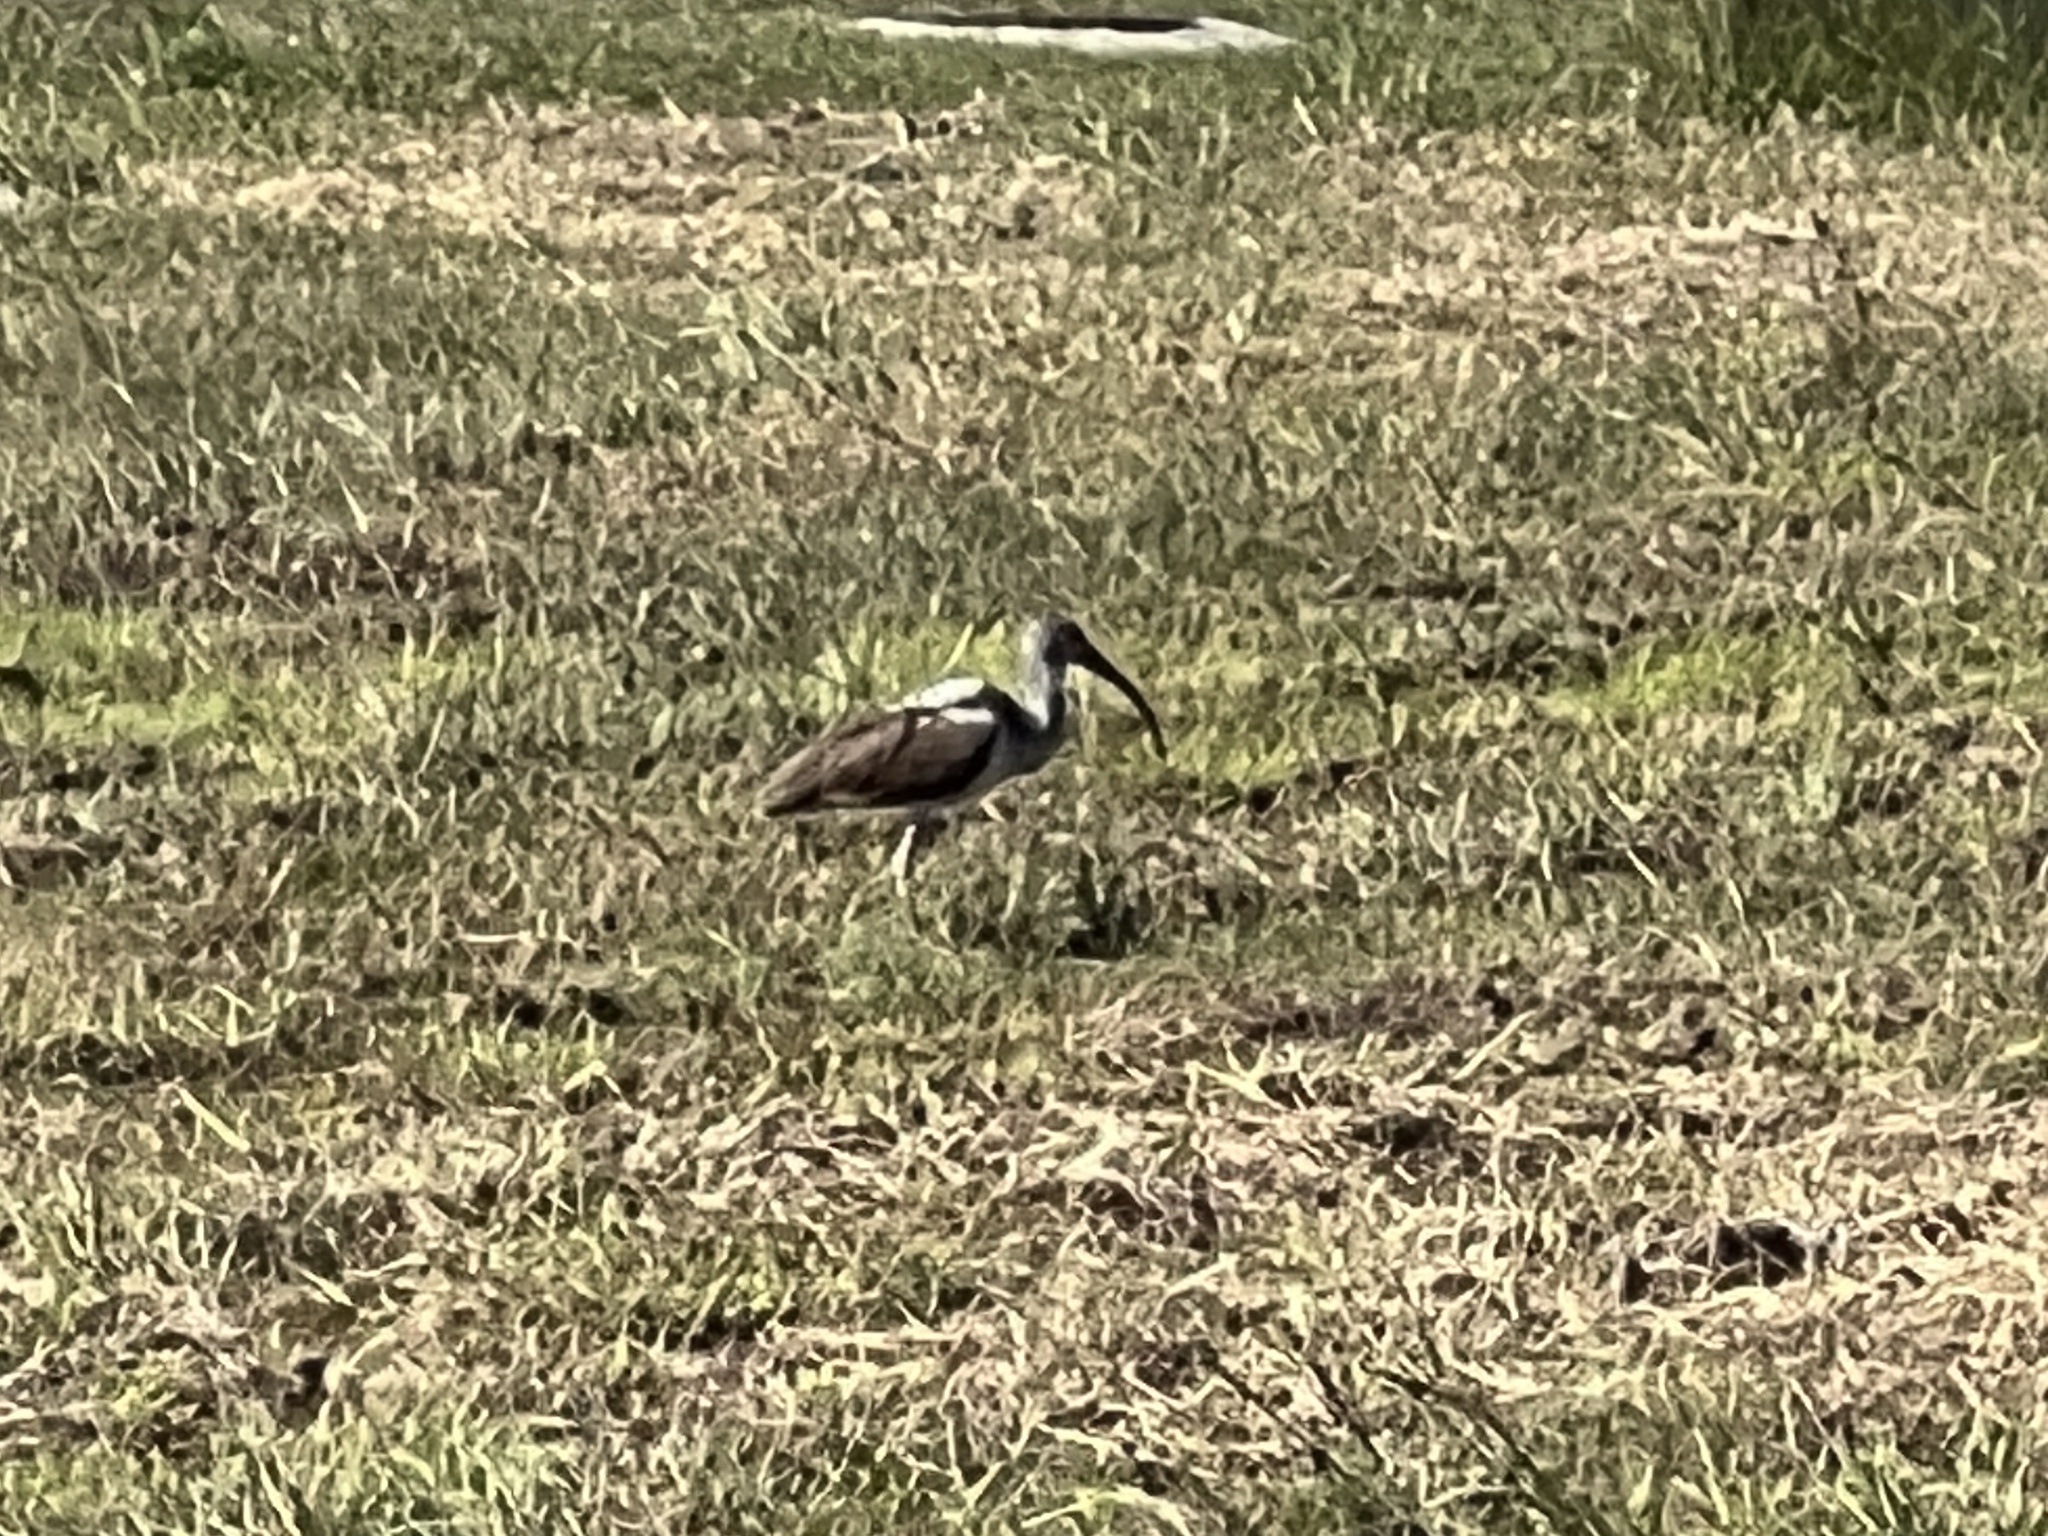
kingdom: Animalia
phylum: Chordata
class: Aves
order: Pelecaniformes
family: Threskiornithidae
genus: Eudocimus
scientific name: Eudocimus albus
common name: White ibis
